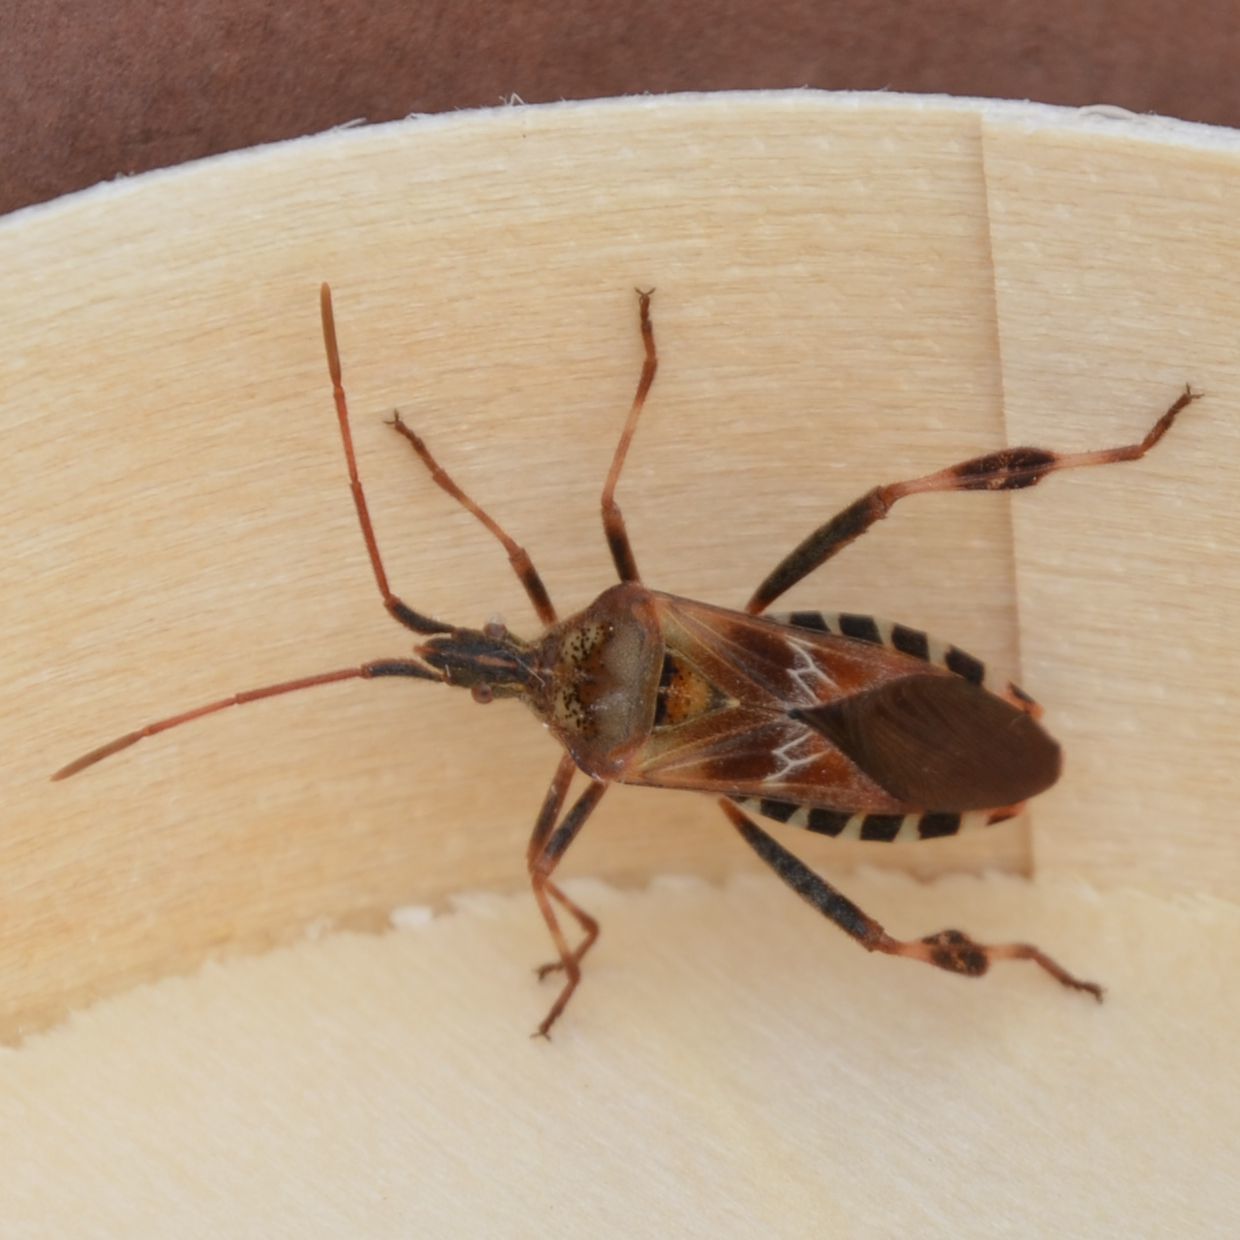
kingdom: Animalia
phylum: Arthropoda
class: Insecta
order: Hemiptera
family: Coreidae
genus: Leptoglossus
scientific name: Leptoglossus occidentalis
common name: Western conifer-seed bug
